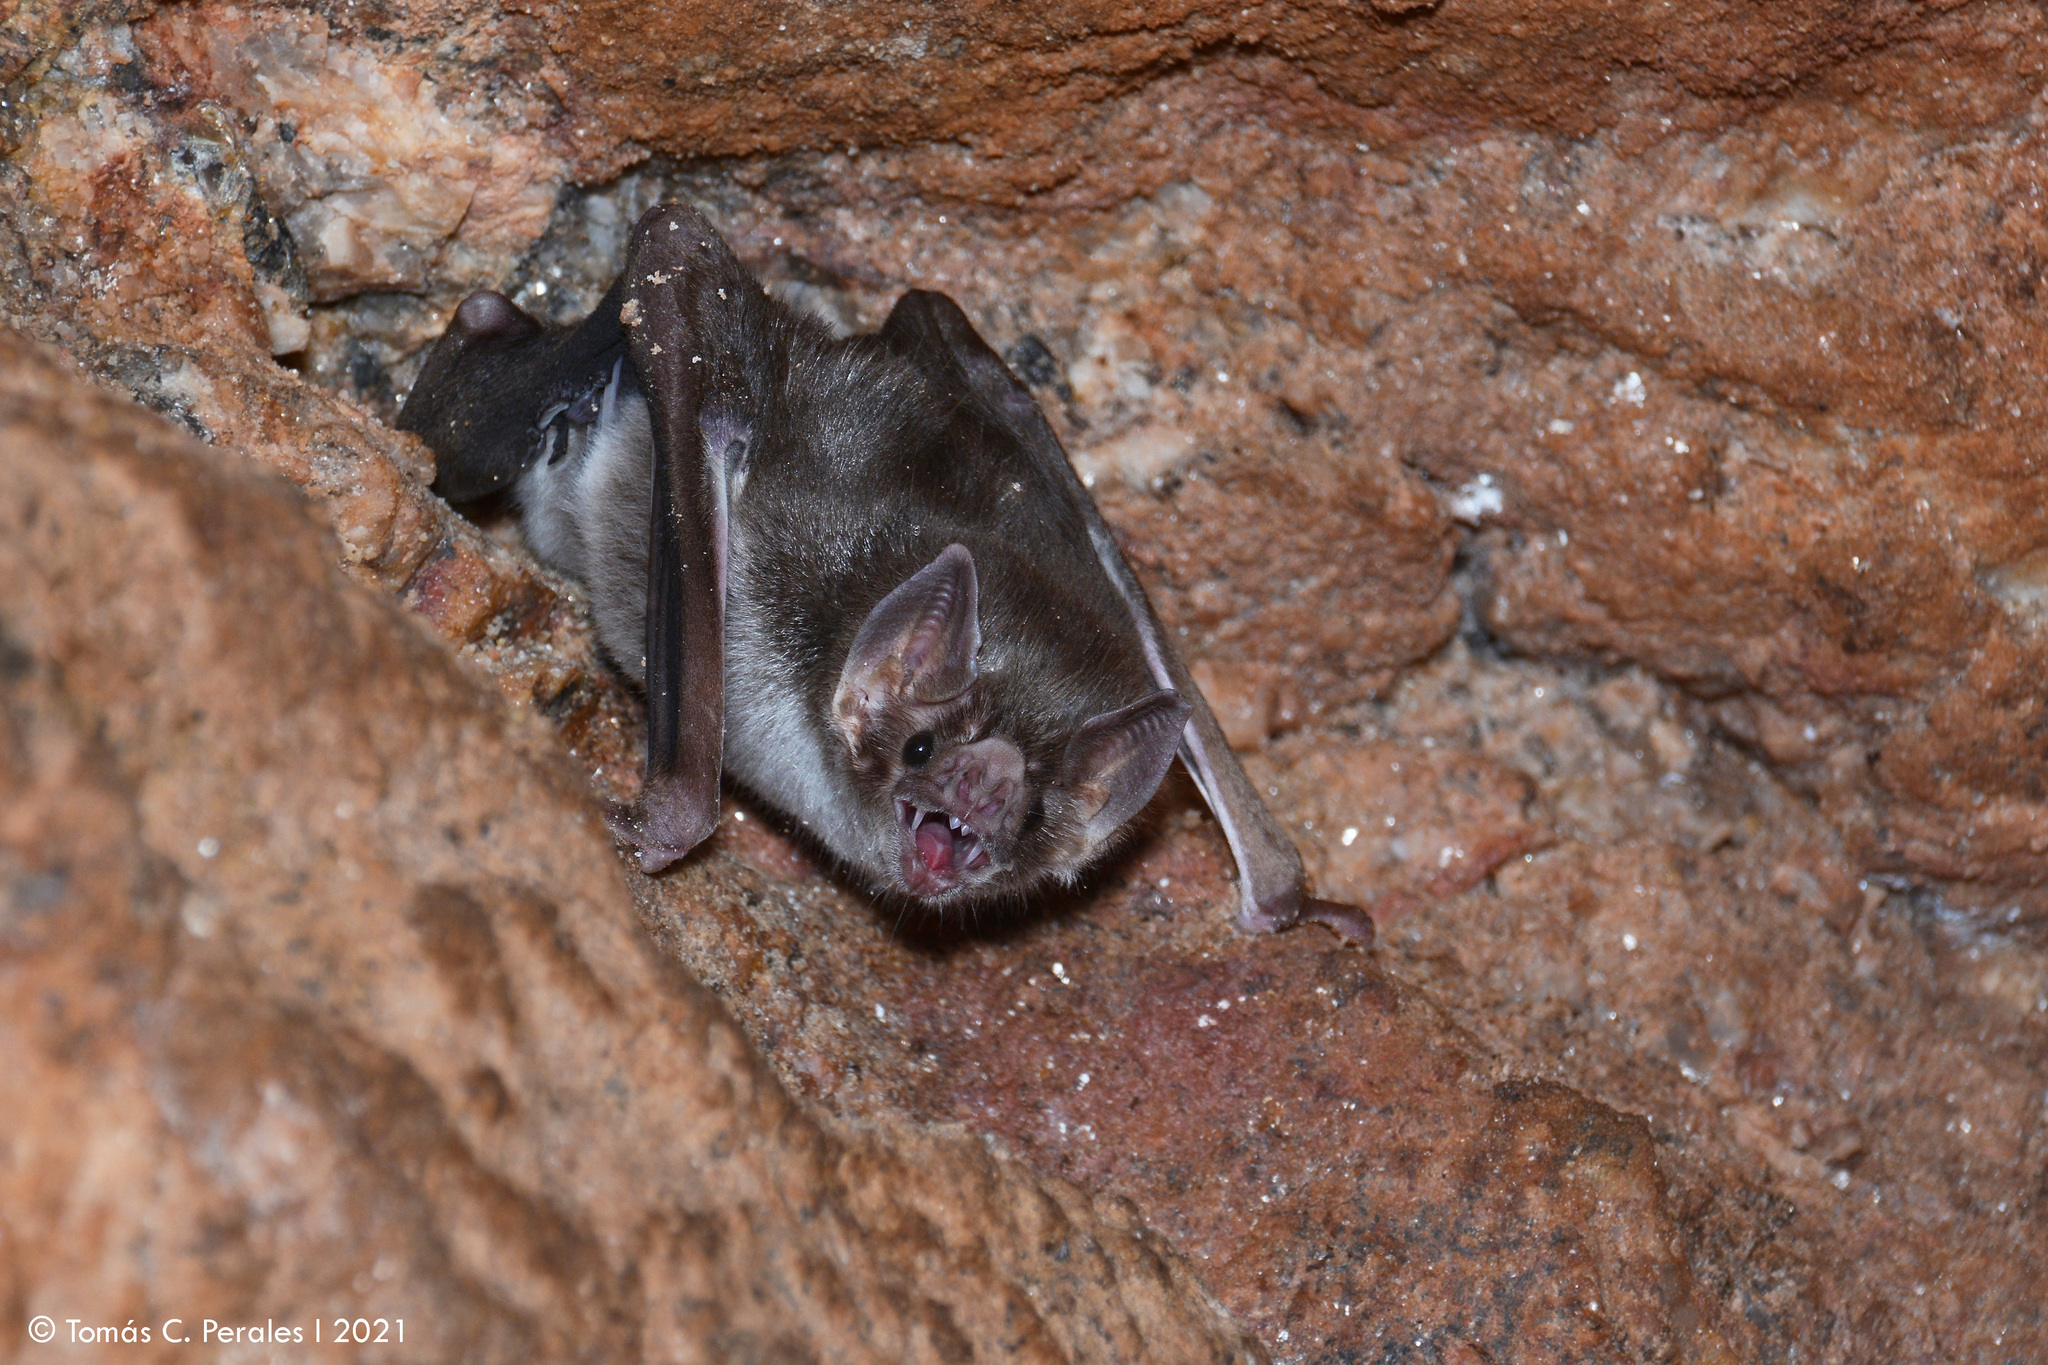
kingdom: Animalia
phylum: Chordata
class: Mammalia
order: Chiroptera
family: Phyllostomidae
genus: Desmodus
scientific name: Desmodus rotundus
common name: Common vampire bat
